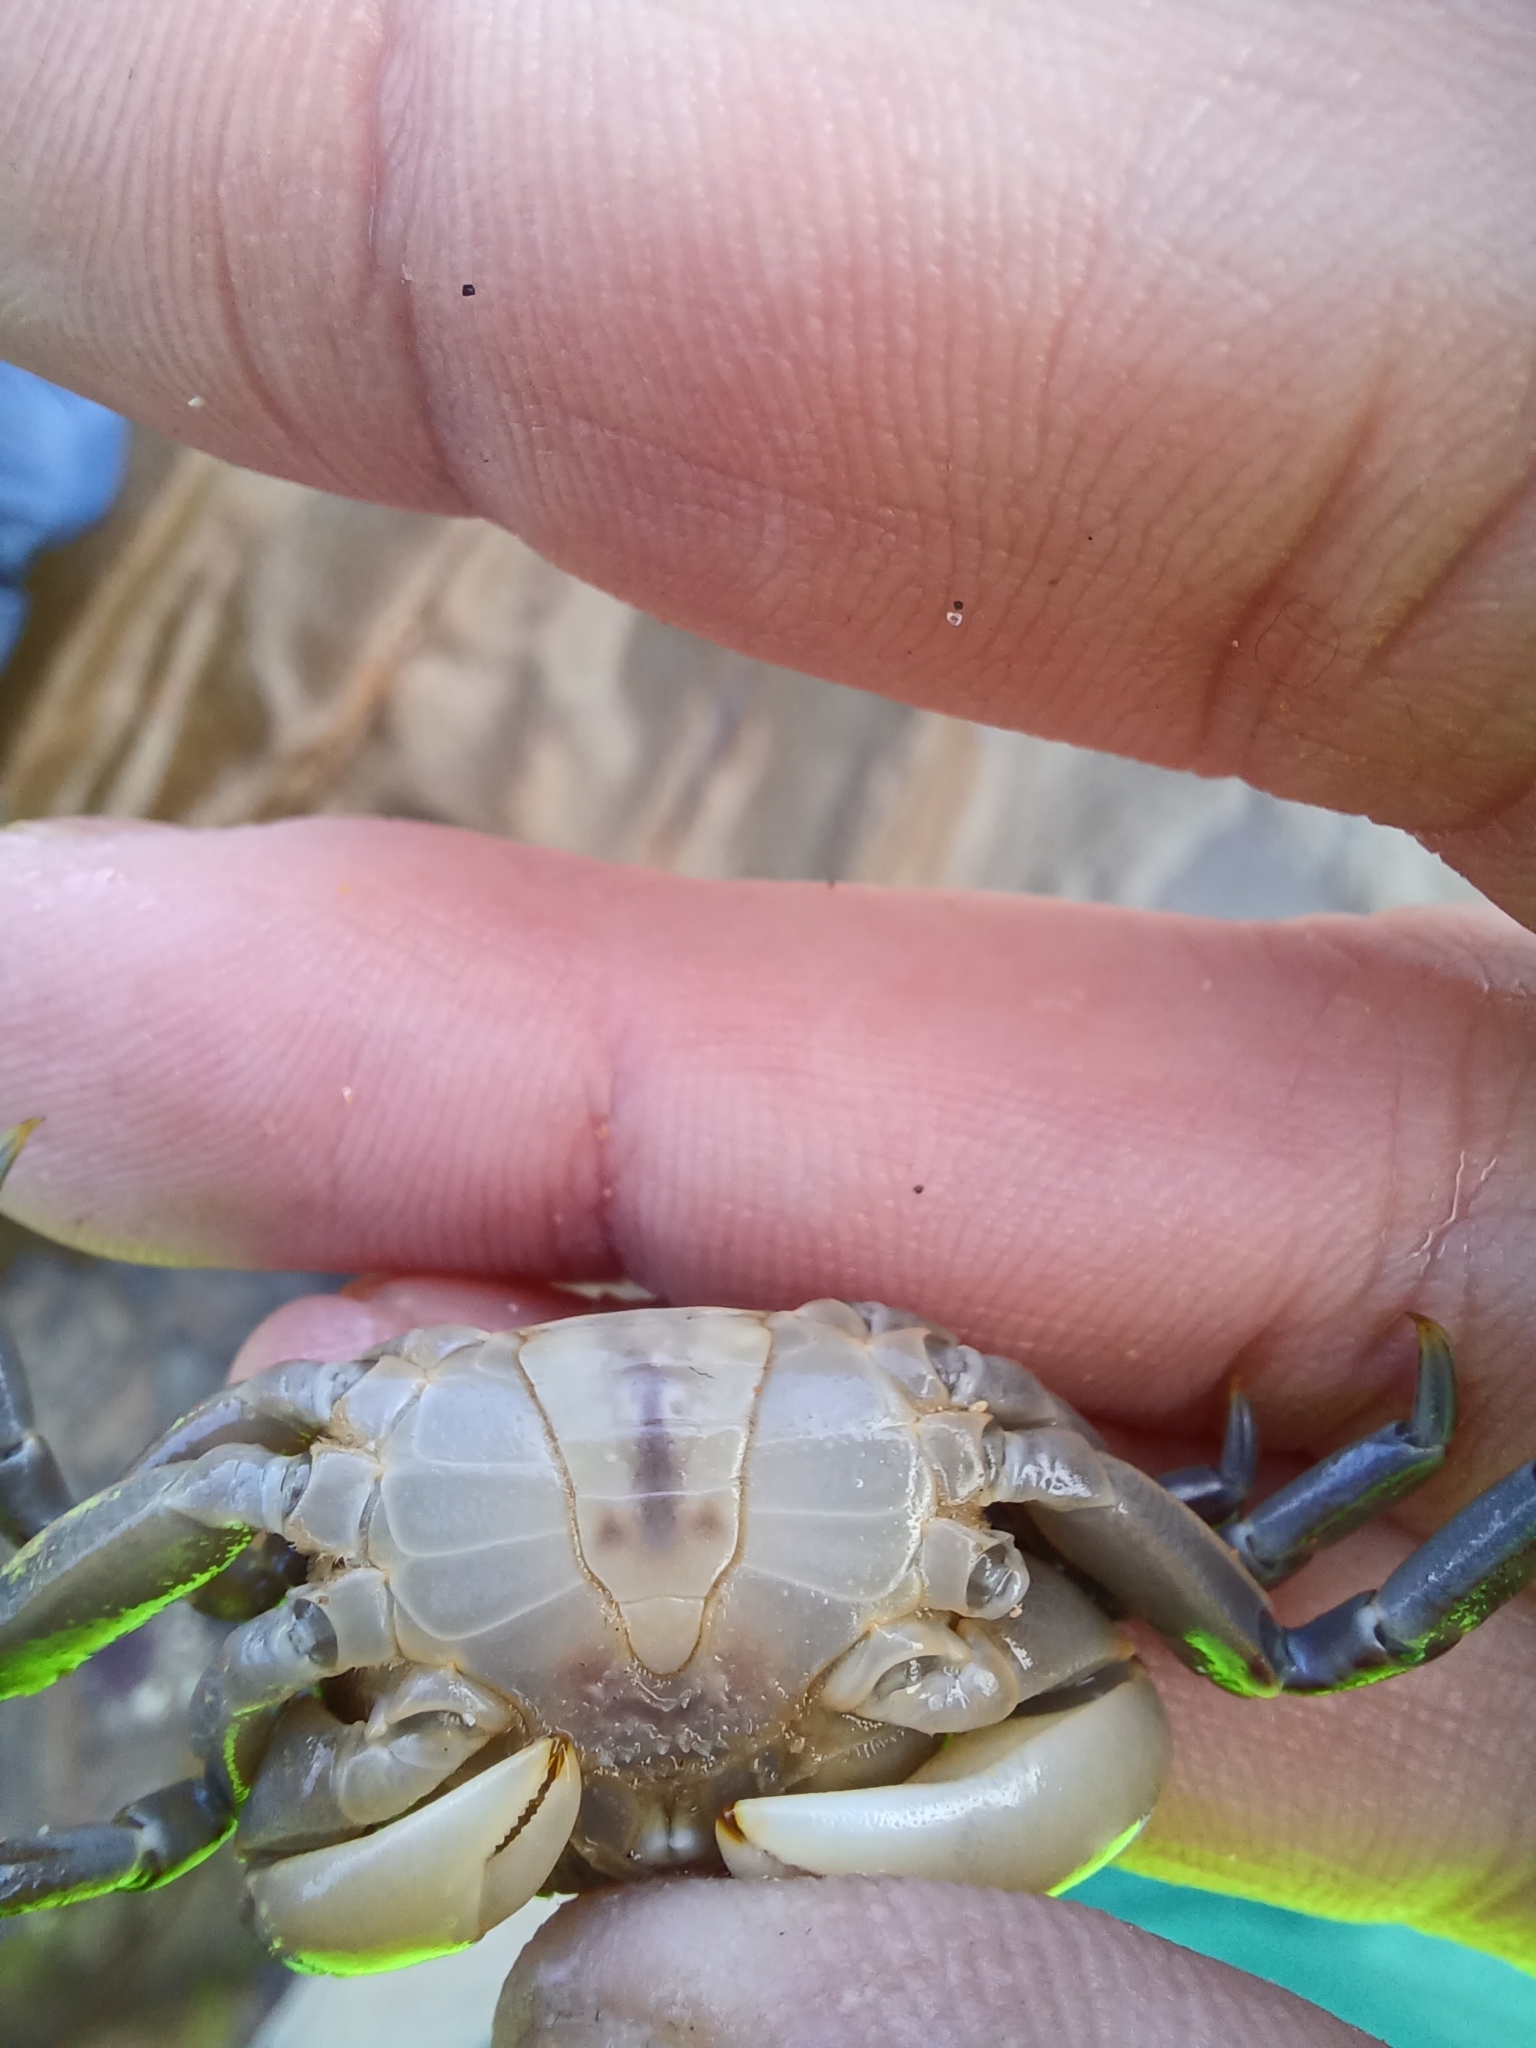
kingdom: Animalia
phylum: Arthropoda
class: Malacostraca
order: Decapoda
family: Varunidae
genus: Cyclograpsus
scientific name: Cyclograpsus granulosus
